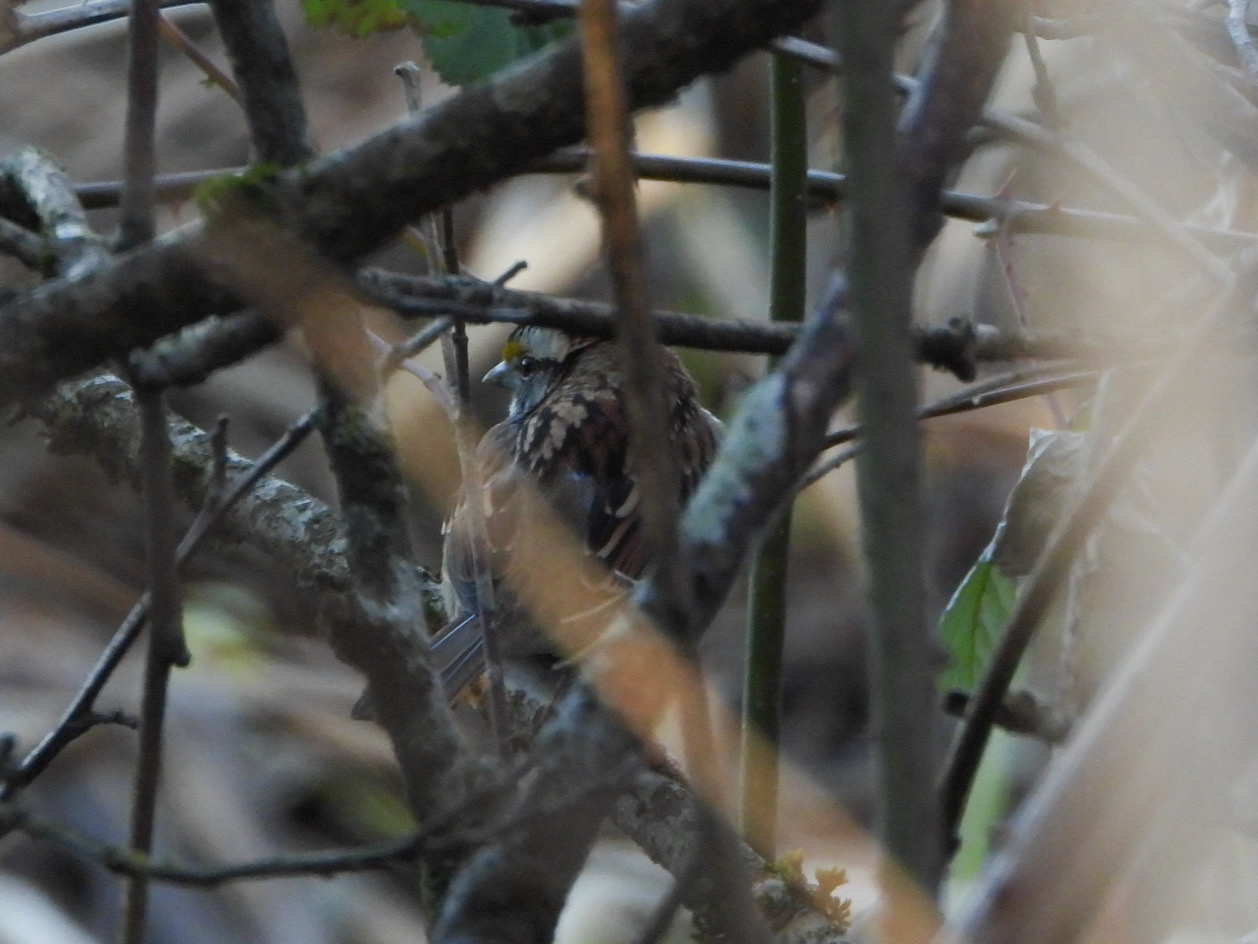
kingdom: Animalia
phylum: Chordata
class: Aves
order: Passeriformes
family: Passerellidae
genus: Zonotrichia
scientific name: Zonotrichia albicollis
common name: White-throated sparrow
